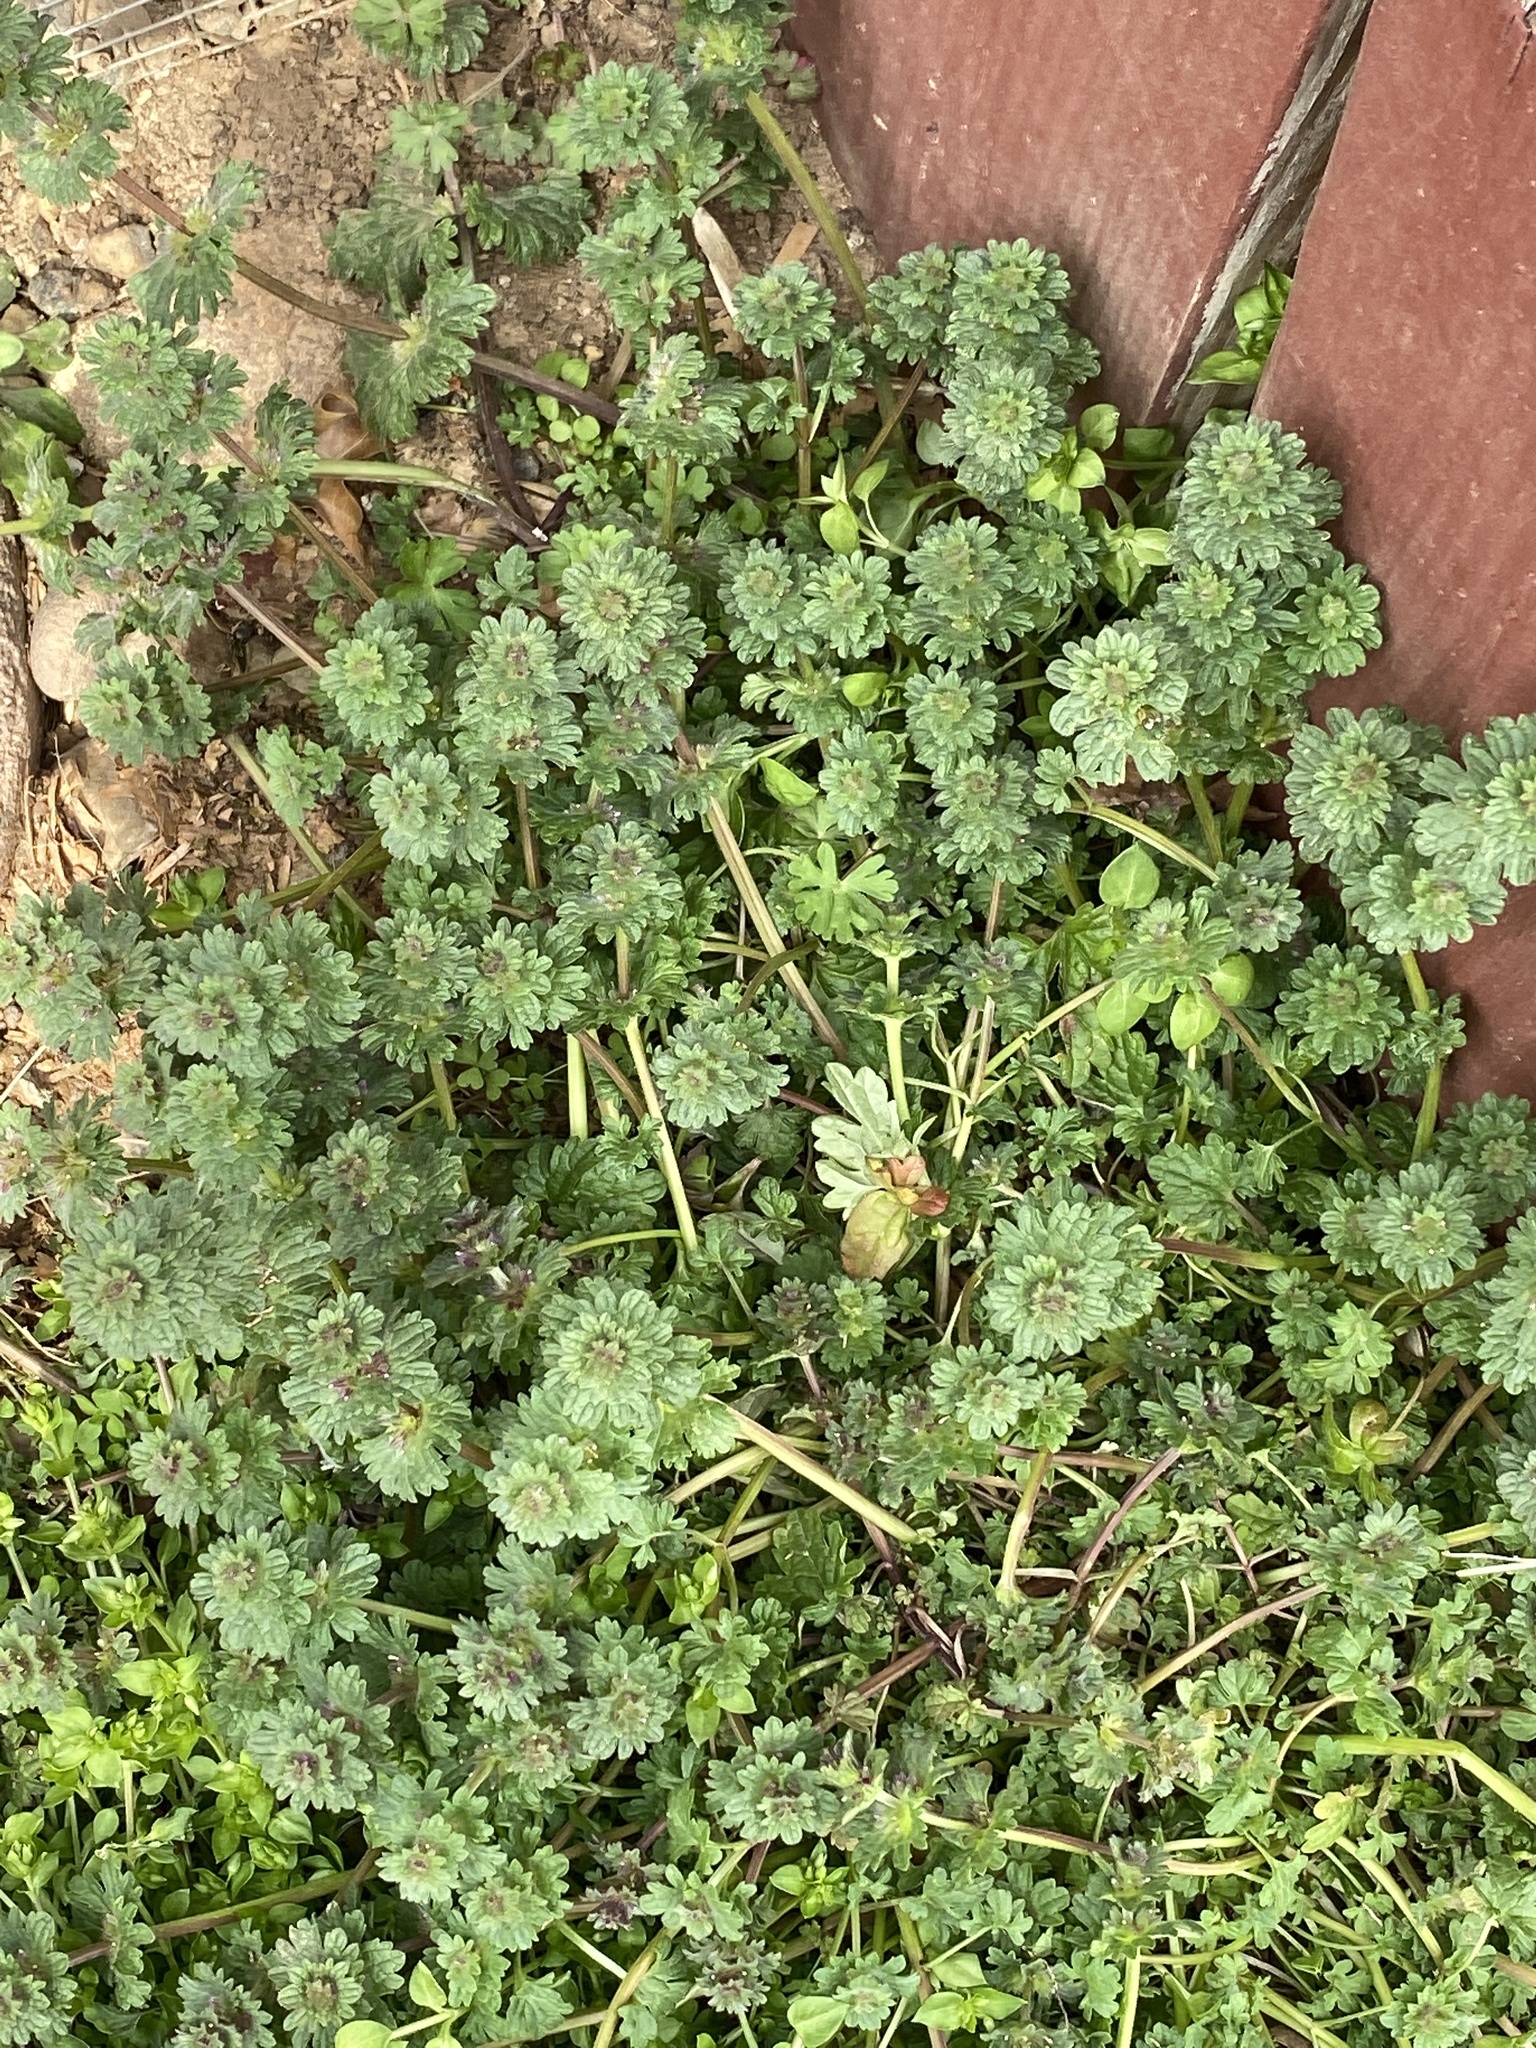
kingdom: Plantae
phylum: Tracheophyta
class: Magnoliopsida
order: Lamiales
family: Lamiaceae
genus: Lamium
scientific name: Lamium amplexicaule
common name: Henbit dead-nettle
